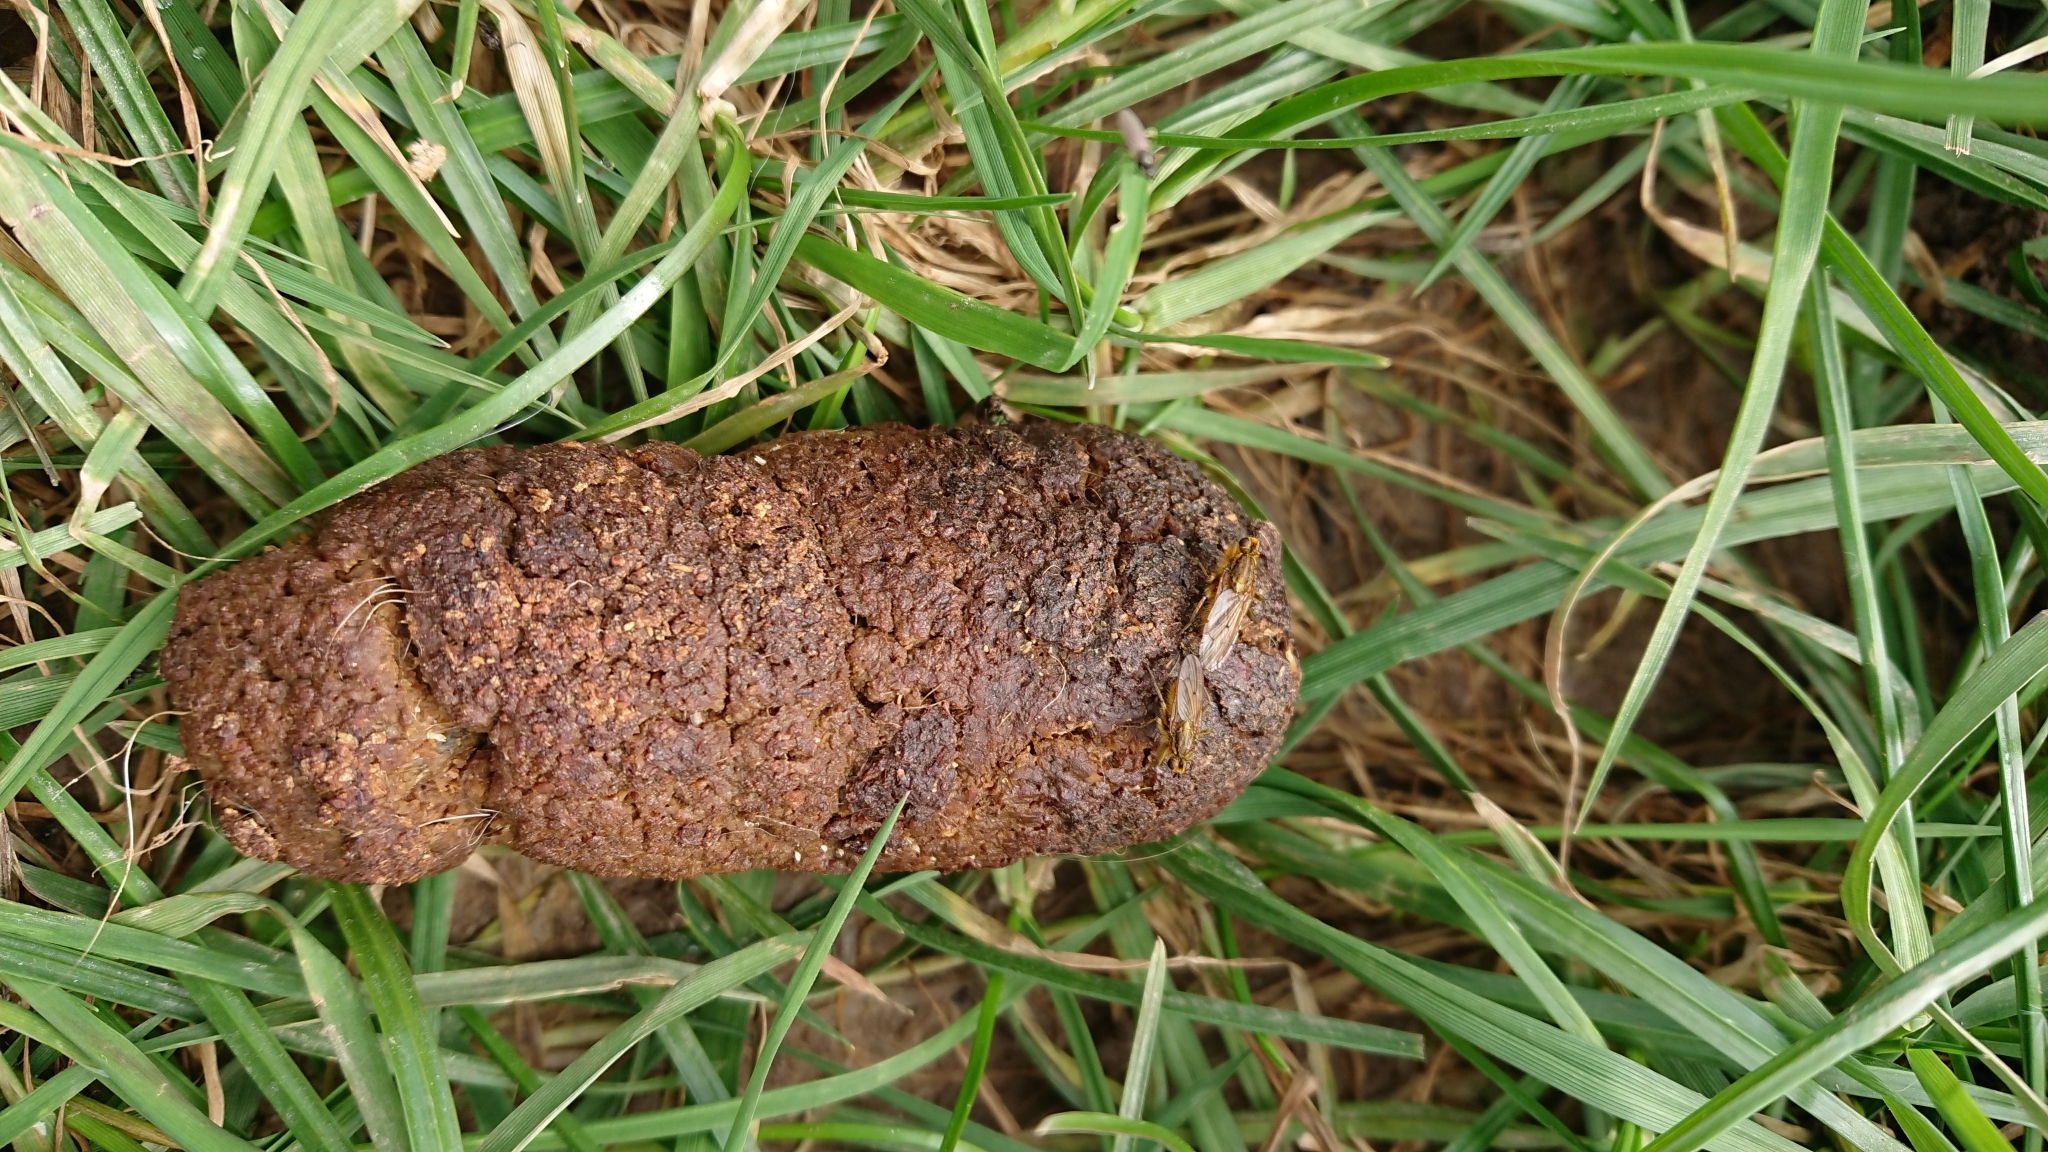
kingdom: Animalia
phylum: Arthropoda
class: Insecta
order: Diptera
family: Scathophagidae
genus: Scathophaga
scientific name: Scathophaga stercoraria
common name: Yellow dung fly
